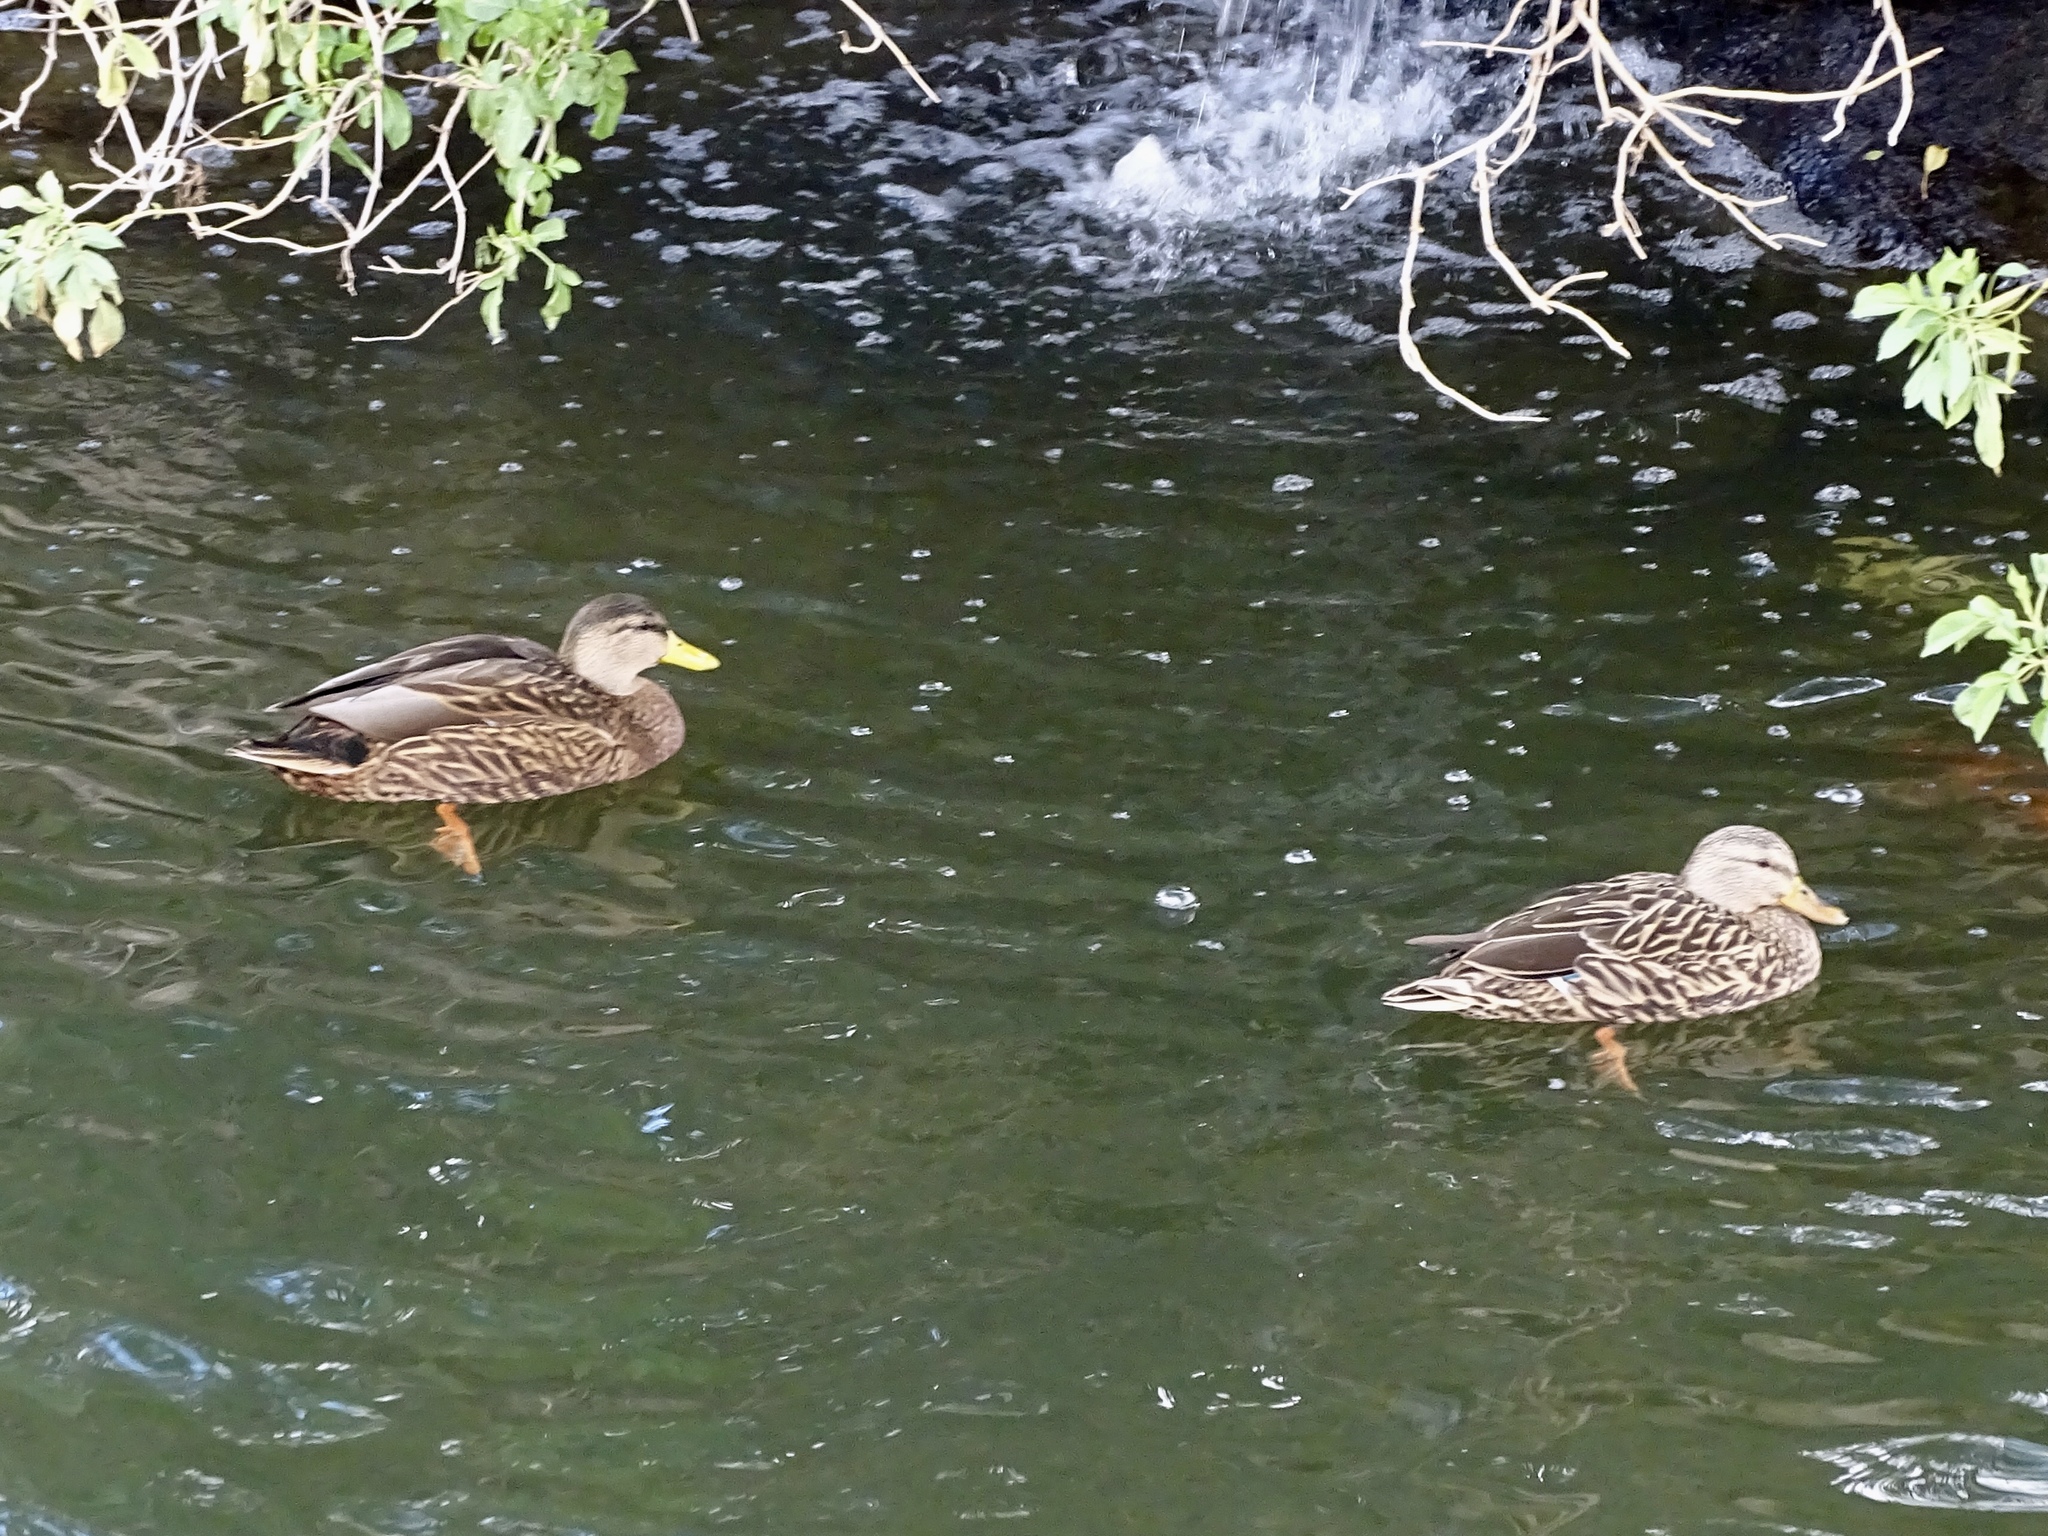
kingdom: Animalia
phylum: Chordata
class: Aves
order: Anseriformes
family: Anatidae
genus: Anas
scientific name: Anas diazi
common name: Mexican duck
